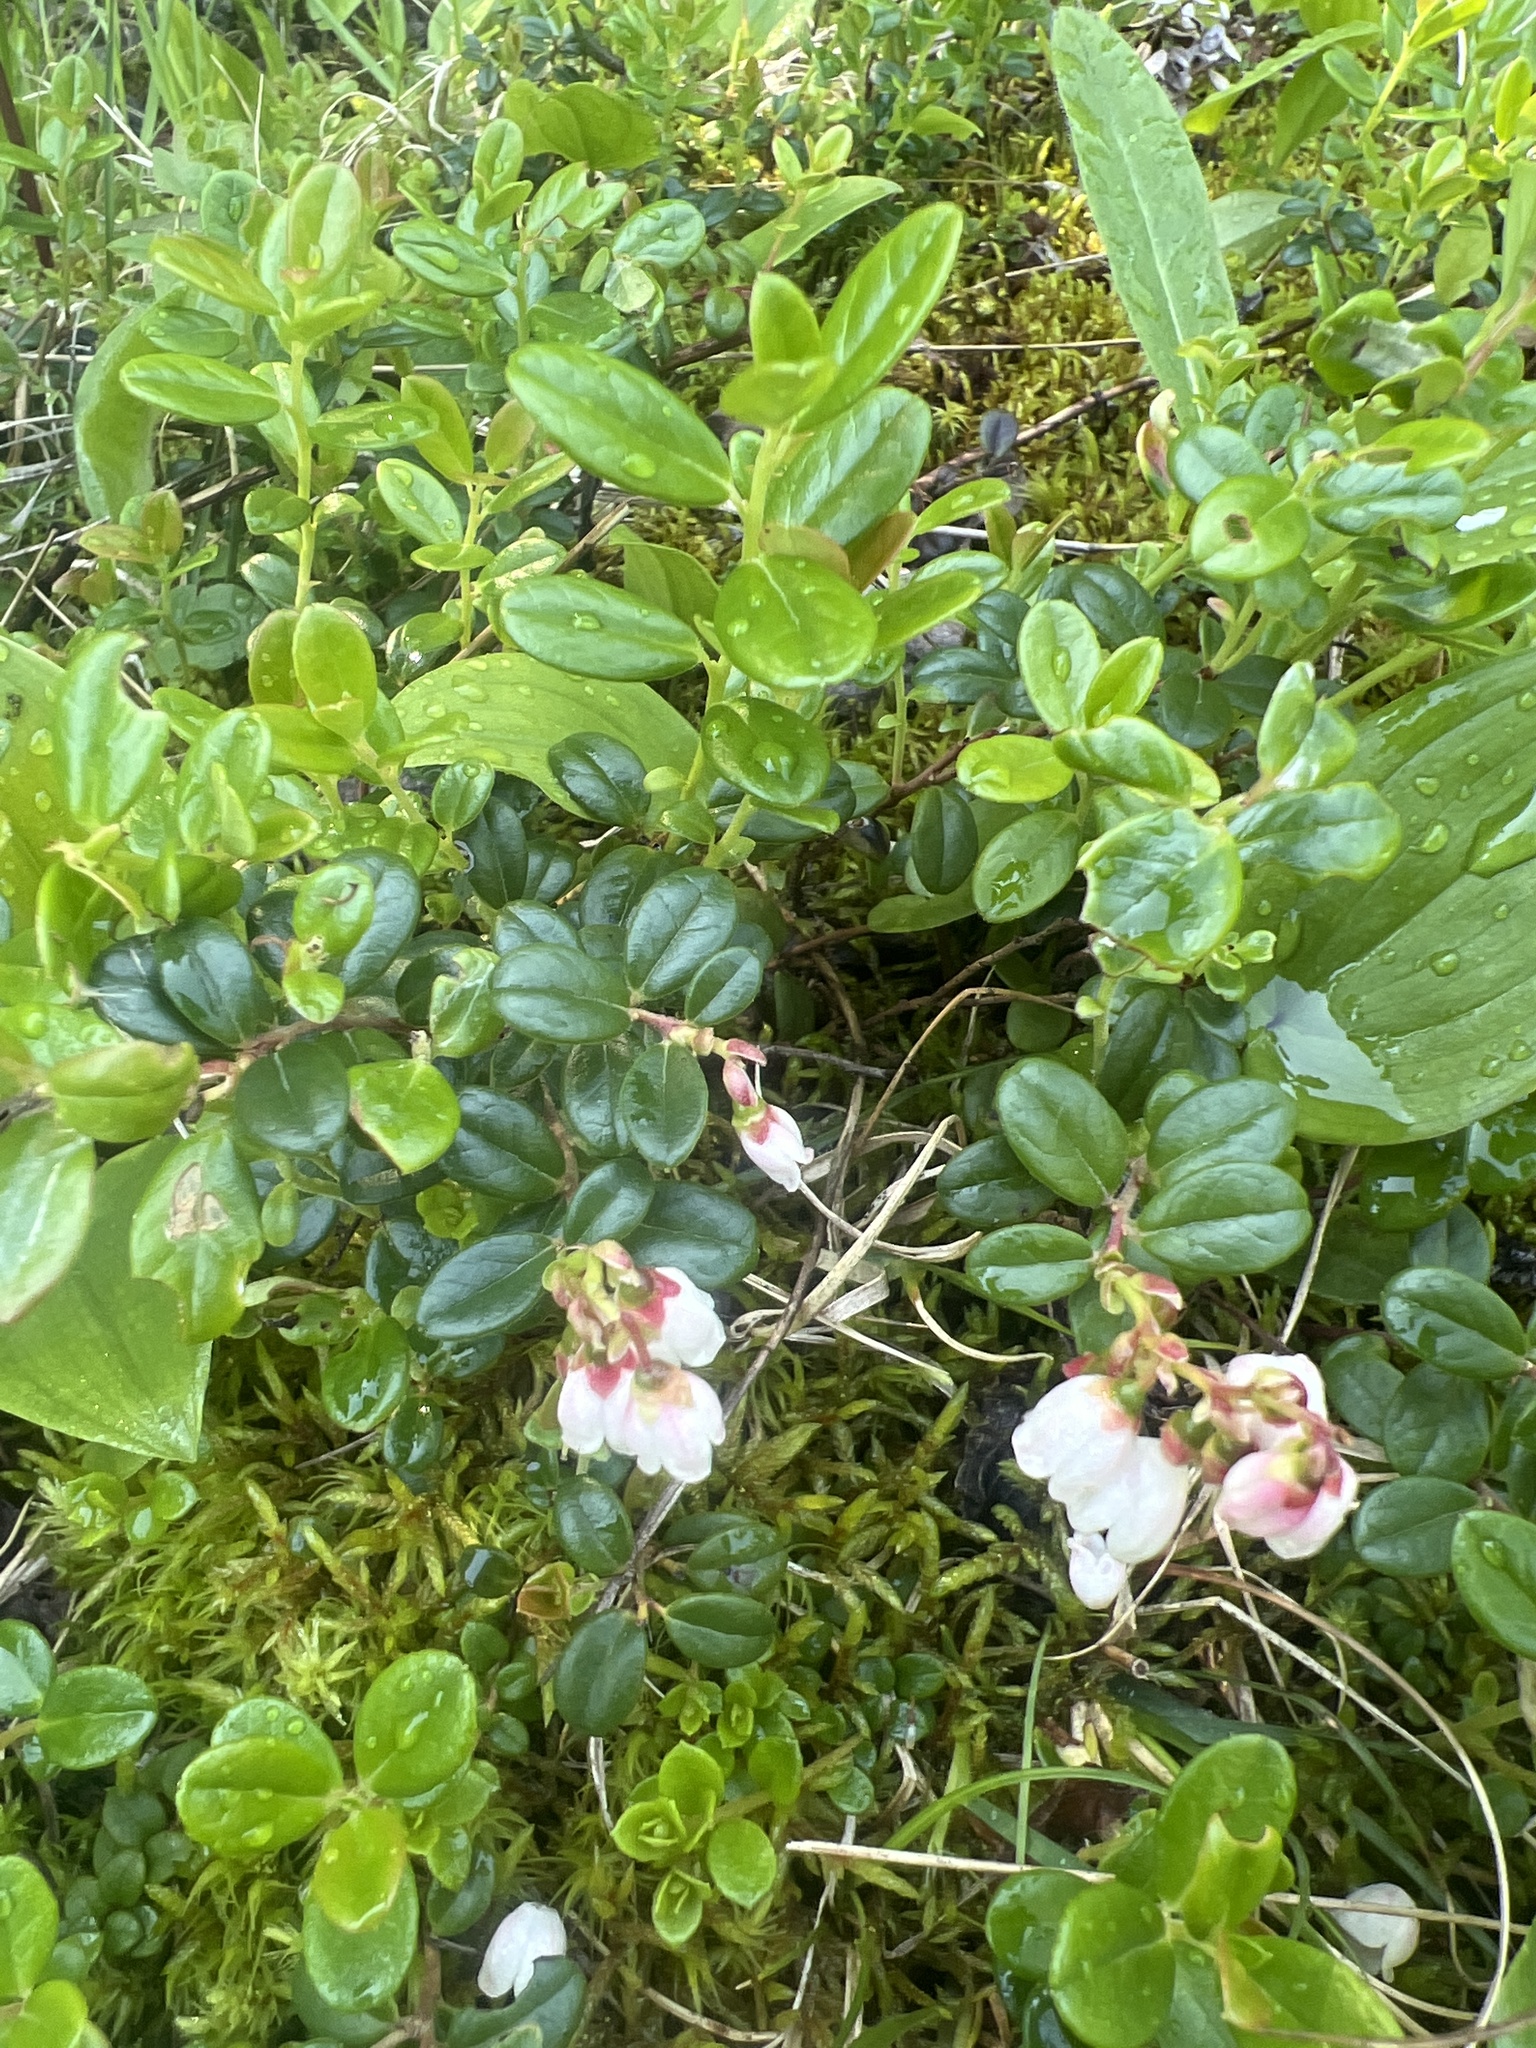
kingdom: Plantae
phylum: Tracheophyta
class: Magnoliopsida
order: Ericales
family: Ericaceae
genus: Vaccinium
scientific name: Vaccinium vitis-idaea
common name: Cowberry
